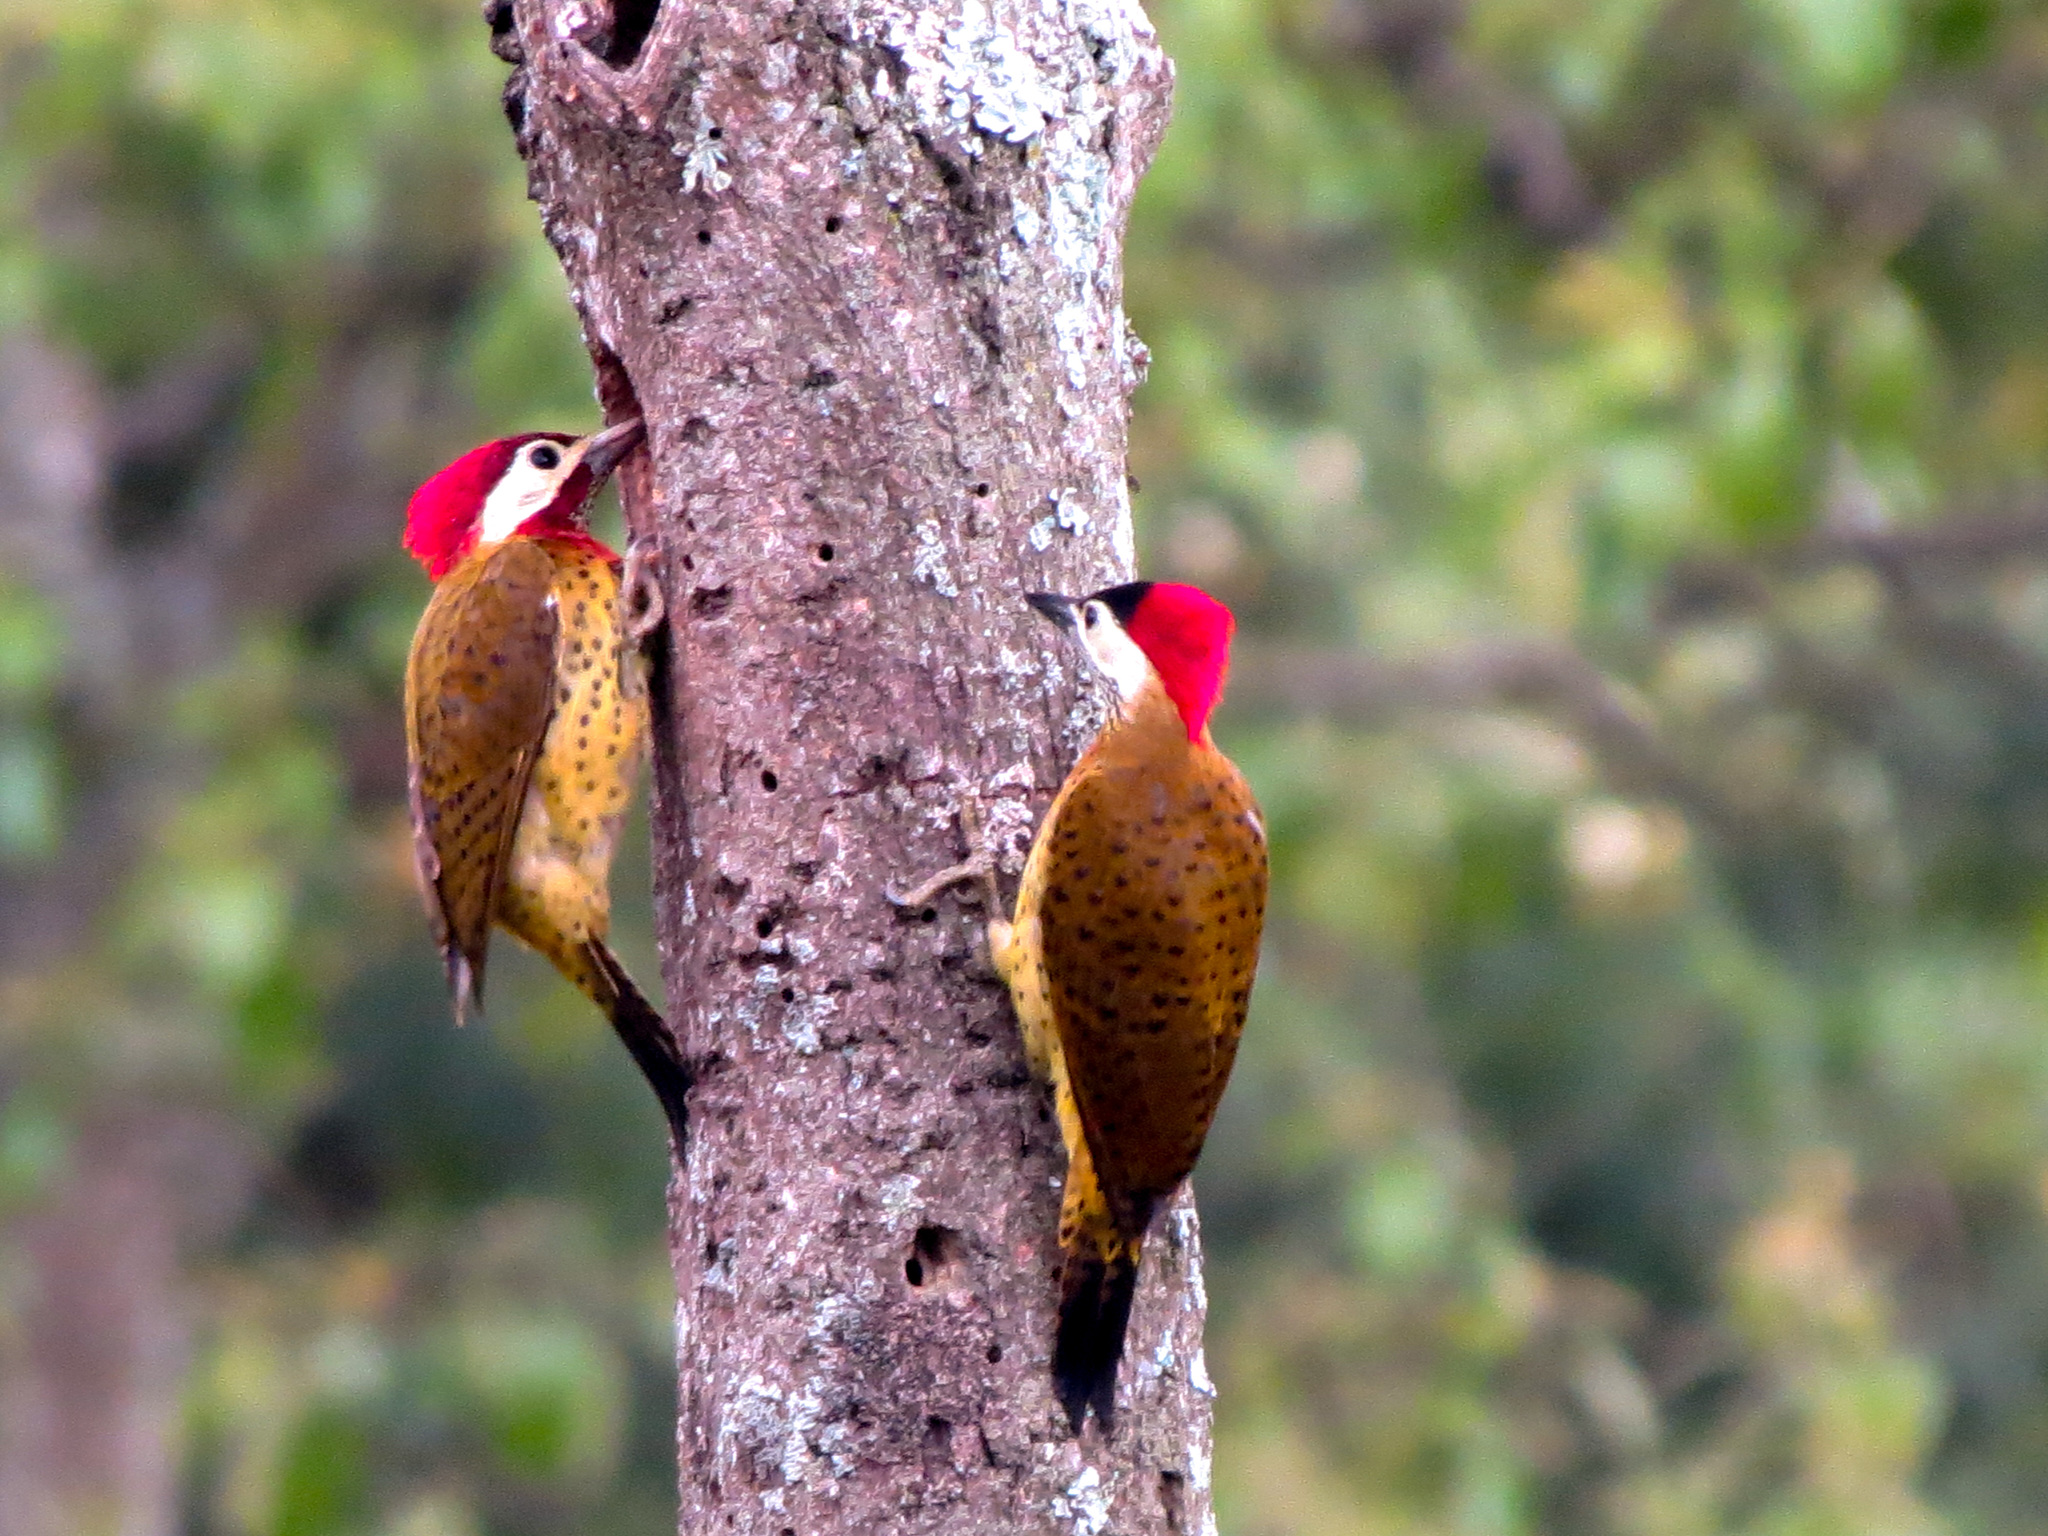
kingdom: Animalia
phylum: Chordata
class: Aves
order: Piciformes
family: Picidae
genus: Colaptes
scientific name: Colaptes punctigula
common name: Spot-breasted woodpecker
